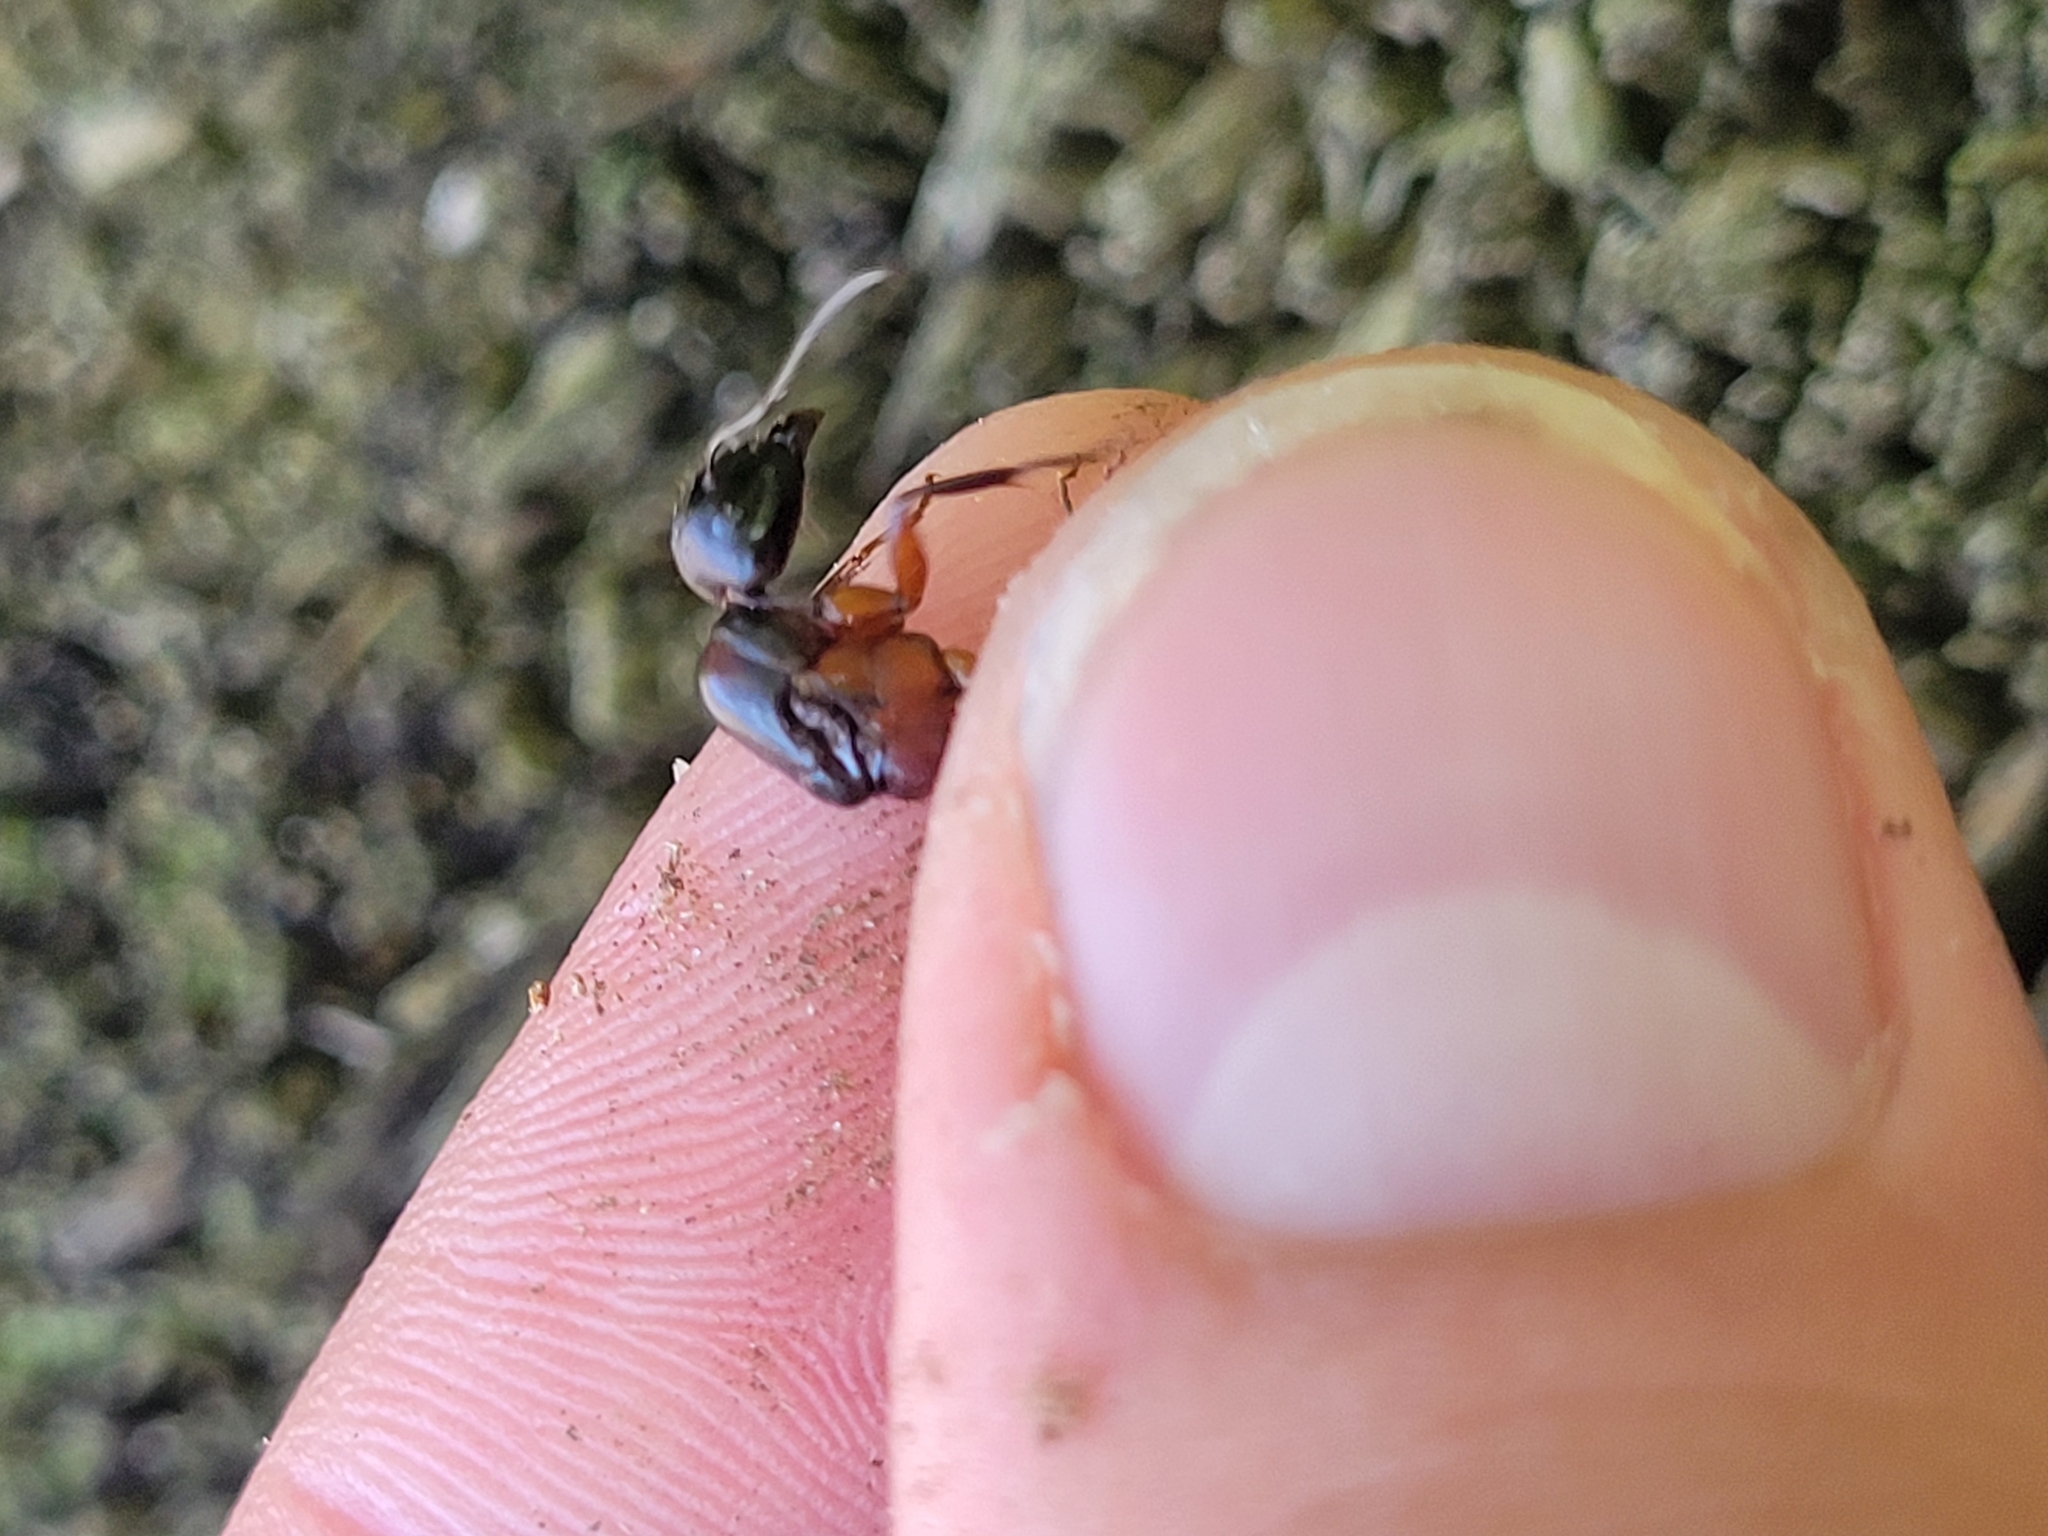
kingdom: Animalia
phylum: Arthropoda
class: Insecta
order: Hymenoptera
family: Formicidae
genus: Camponotus
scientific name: Camponotus chromaiodes
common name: Red carpenter ant
